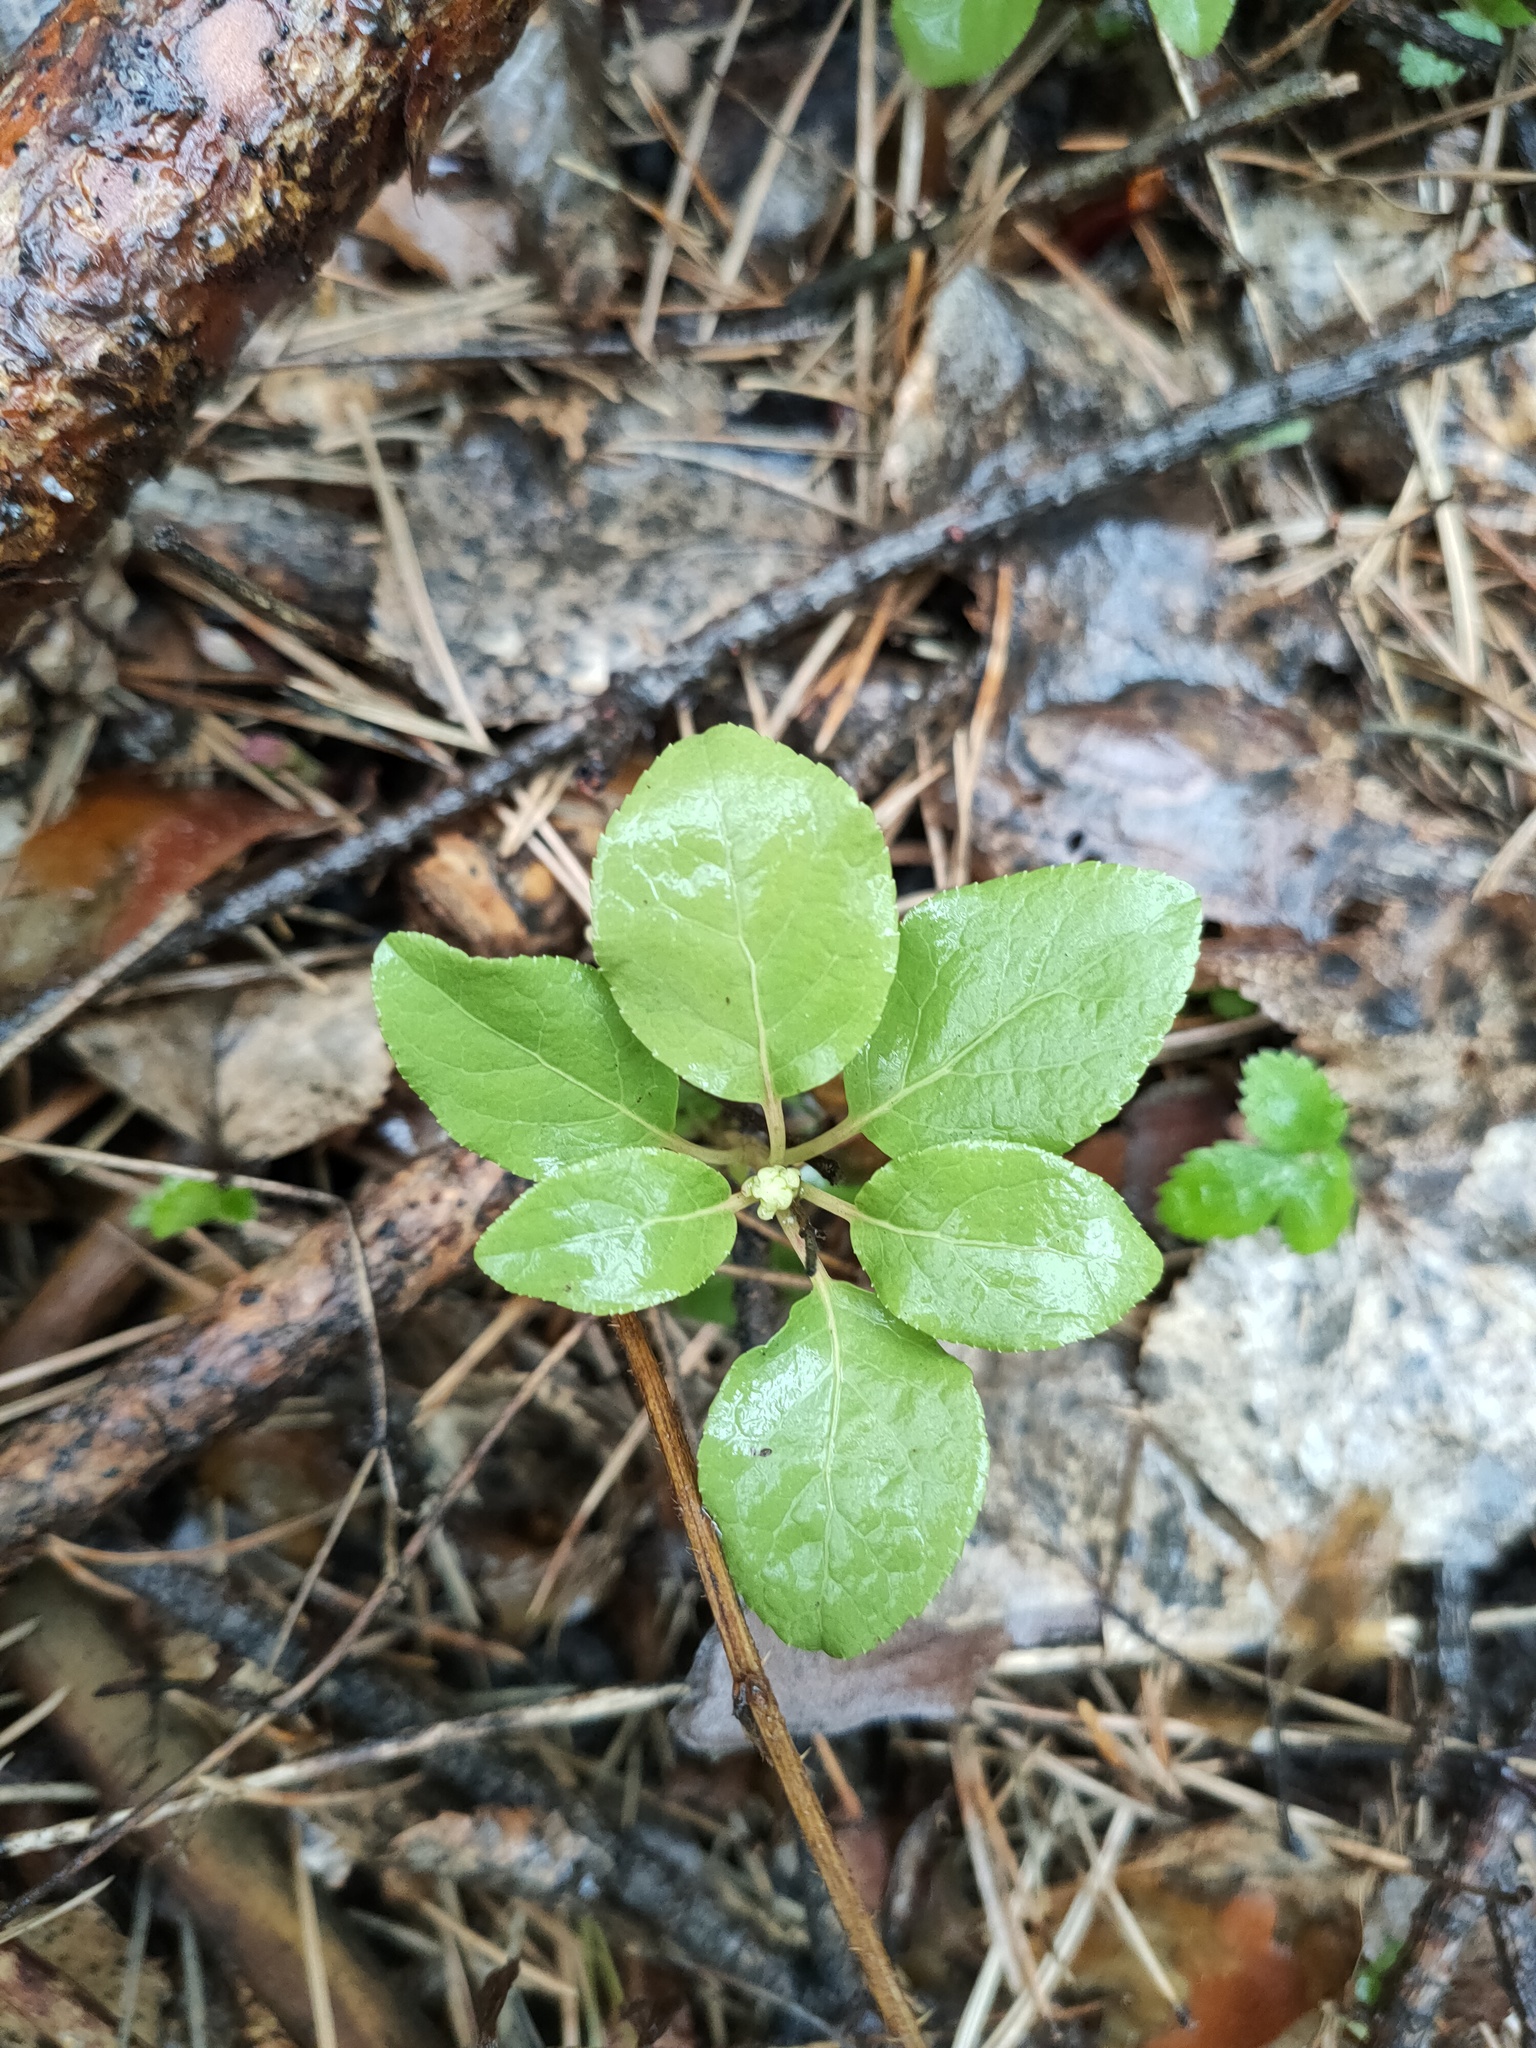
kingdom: Plantae
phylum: Tracheophyta
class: Magnoliopsida
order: Ericales
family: Ericaceae
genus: Orthilia
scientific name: Orthilia secunda
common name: One-sided orthilia
